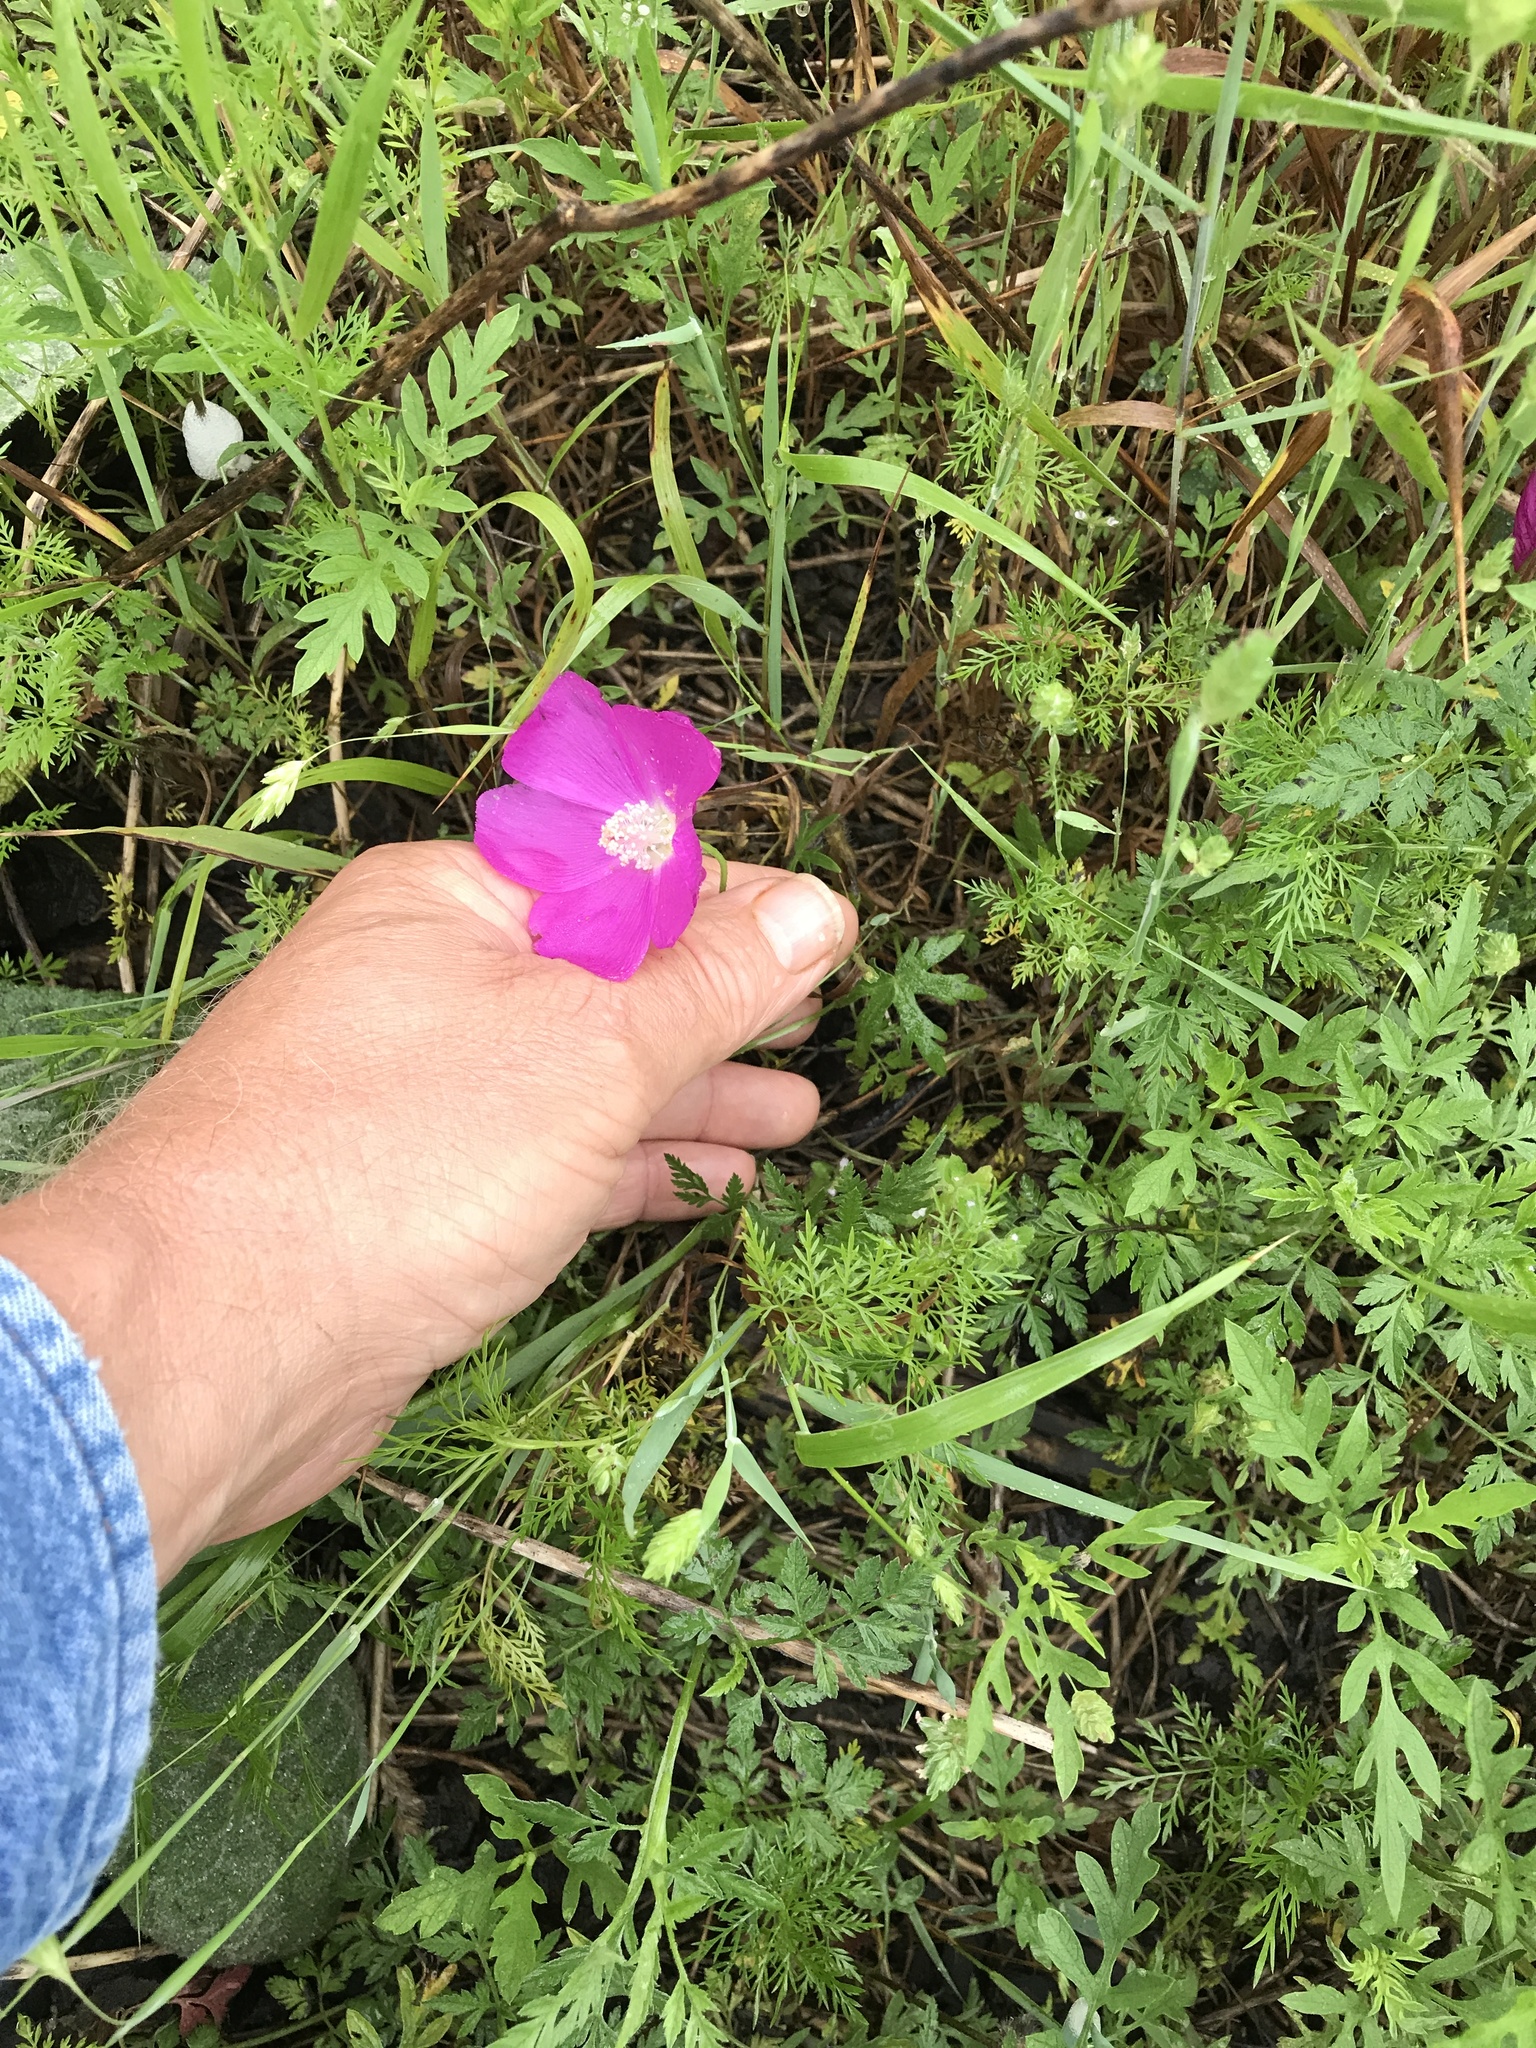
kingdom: Plantae
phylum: Tracheophyta
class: Magnoliopsida
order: Malvales
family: Malvaceae
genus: Callirhoe
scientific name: Callirhoe involucrata
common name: Purple poppy-mallow
